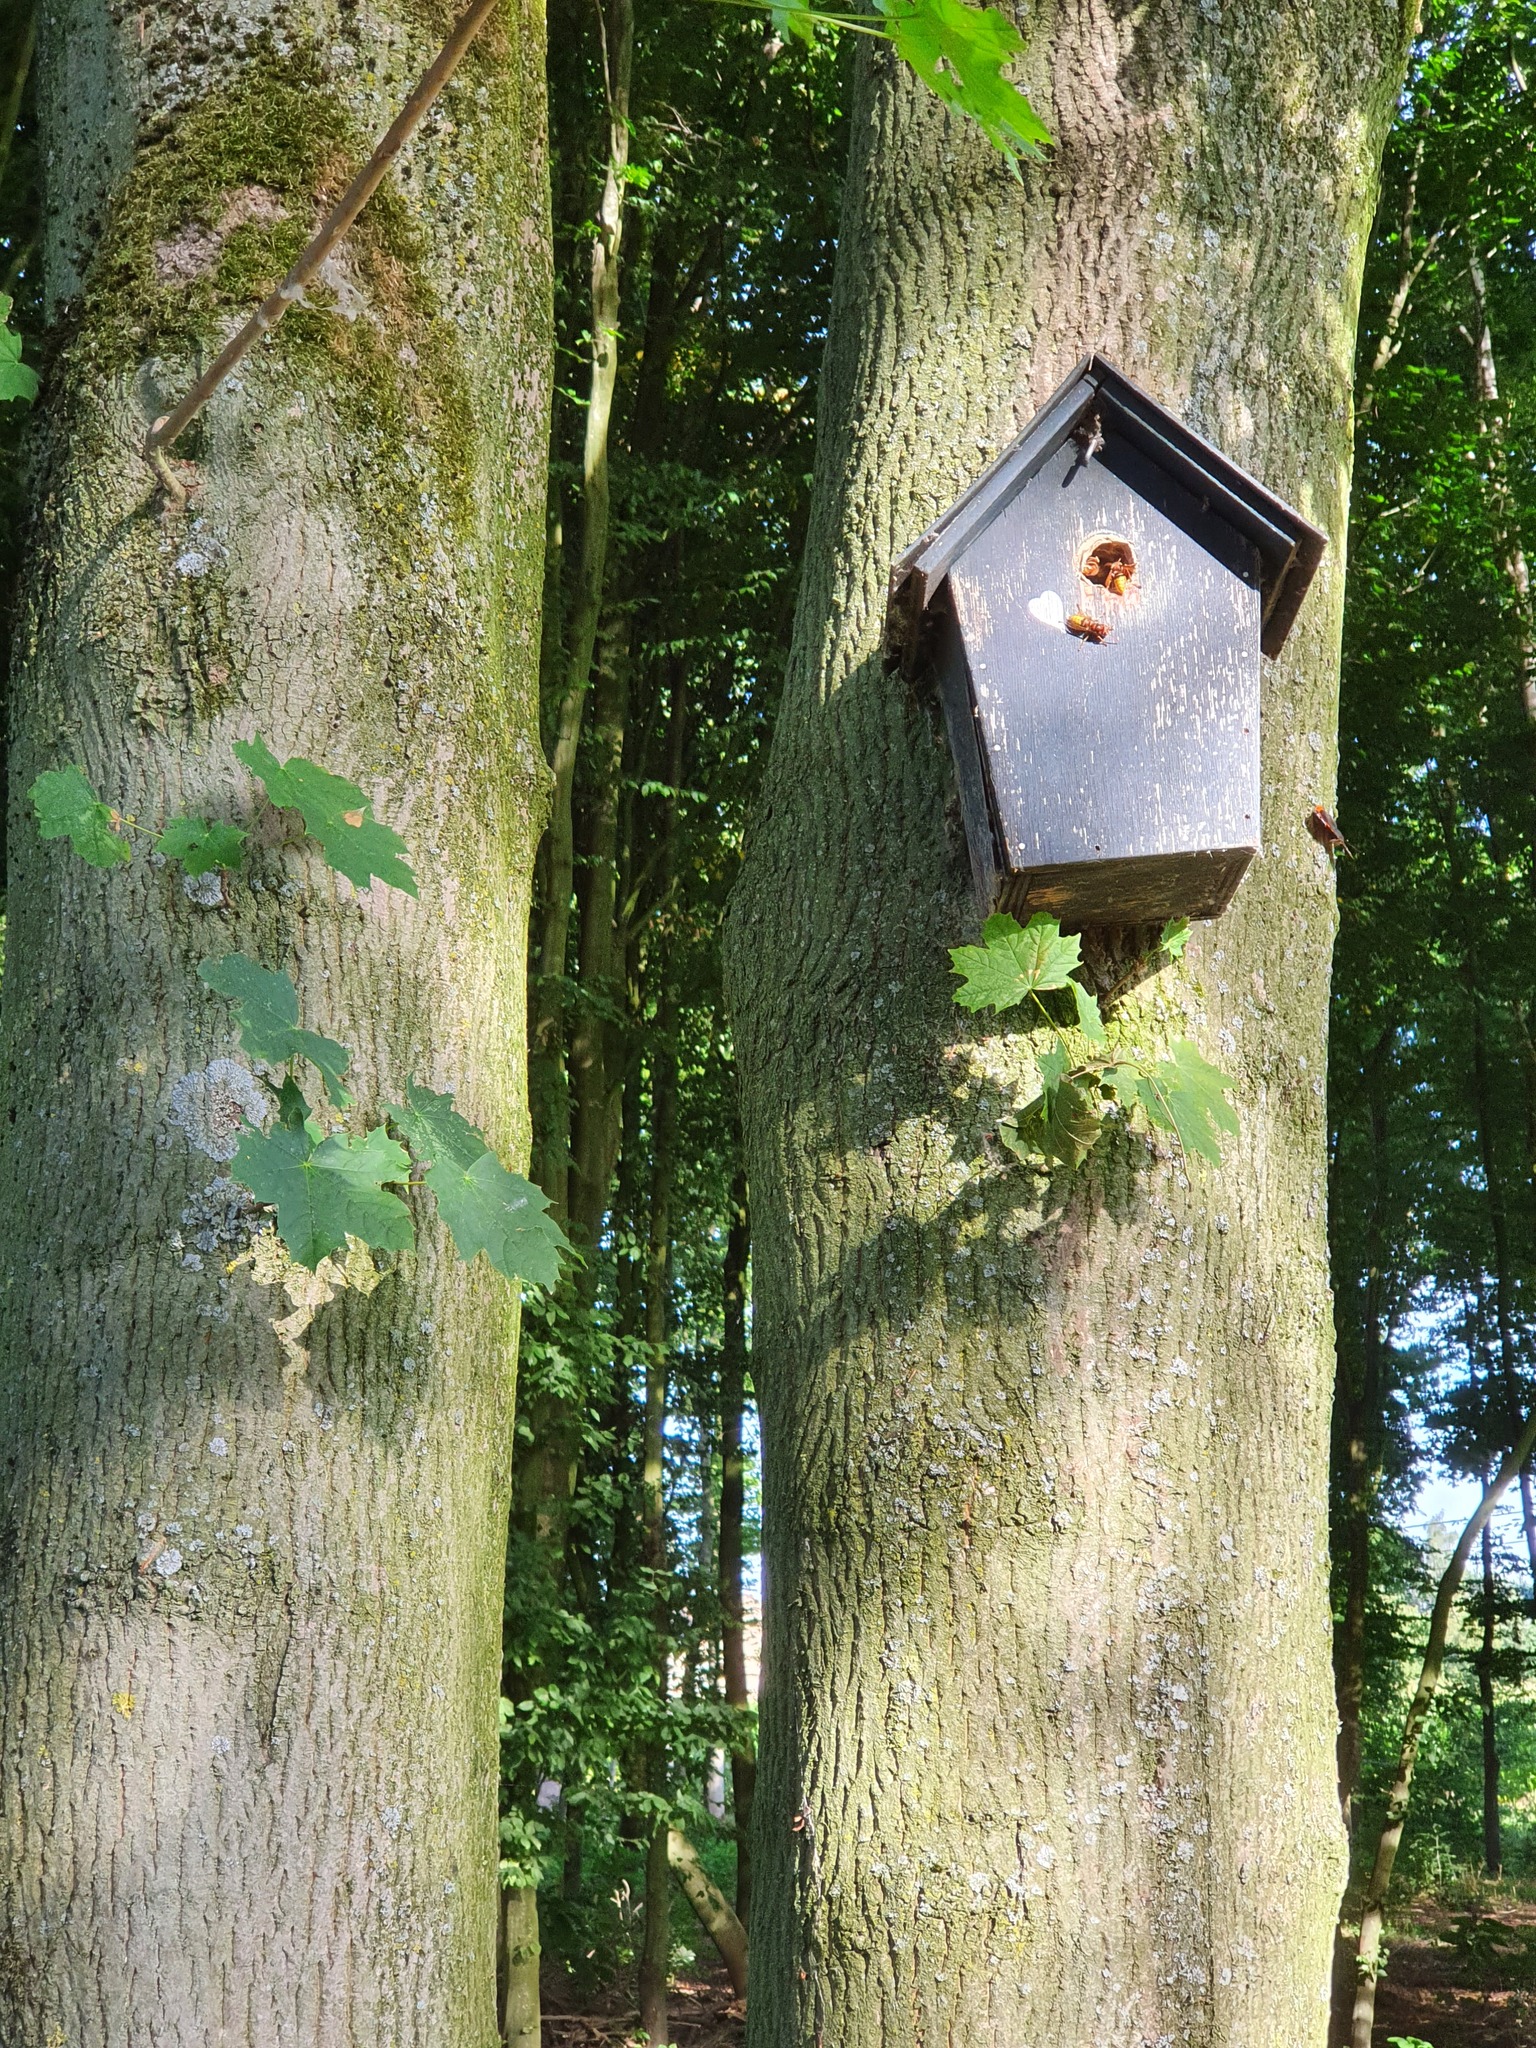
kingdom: Animalia
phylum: Arthropoda
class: Insecta
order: Hymenoptera
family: Vespidae
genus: Vespa
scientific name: Vespa crabro
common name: Hornet
